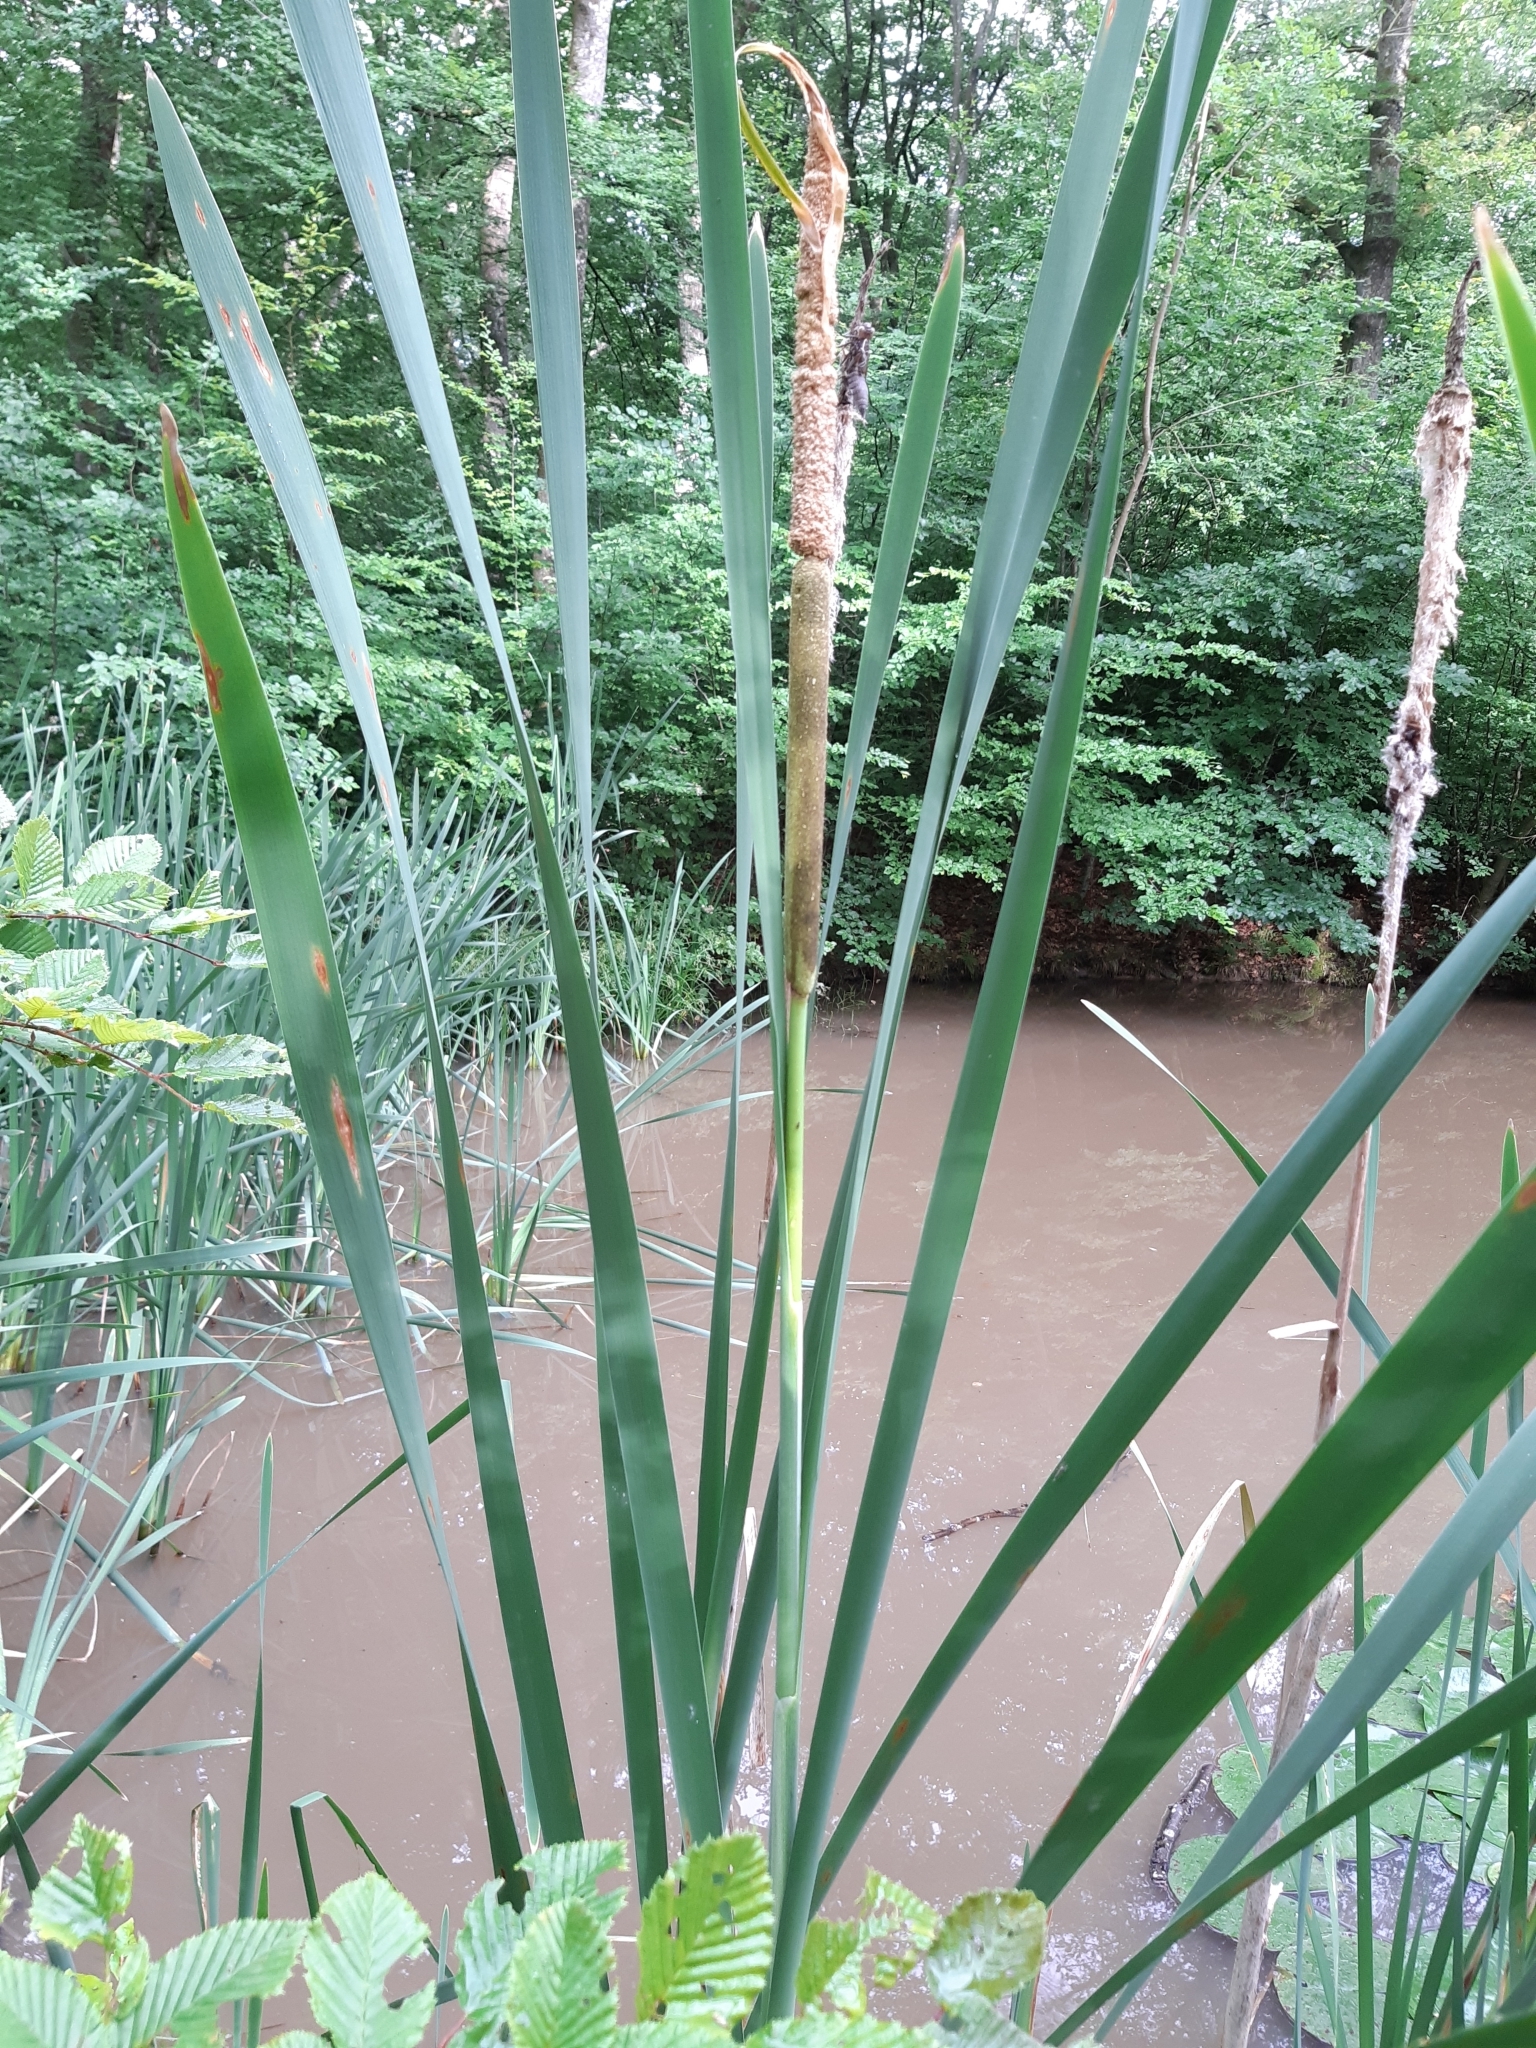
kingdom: Plantae
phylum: Tracheophyta
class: Liliopsida
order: Poales
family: Typhaceae
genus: Typha
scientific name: Typha latifolia
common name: Broadleaf cattail
